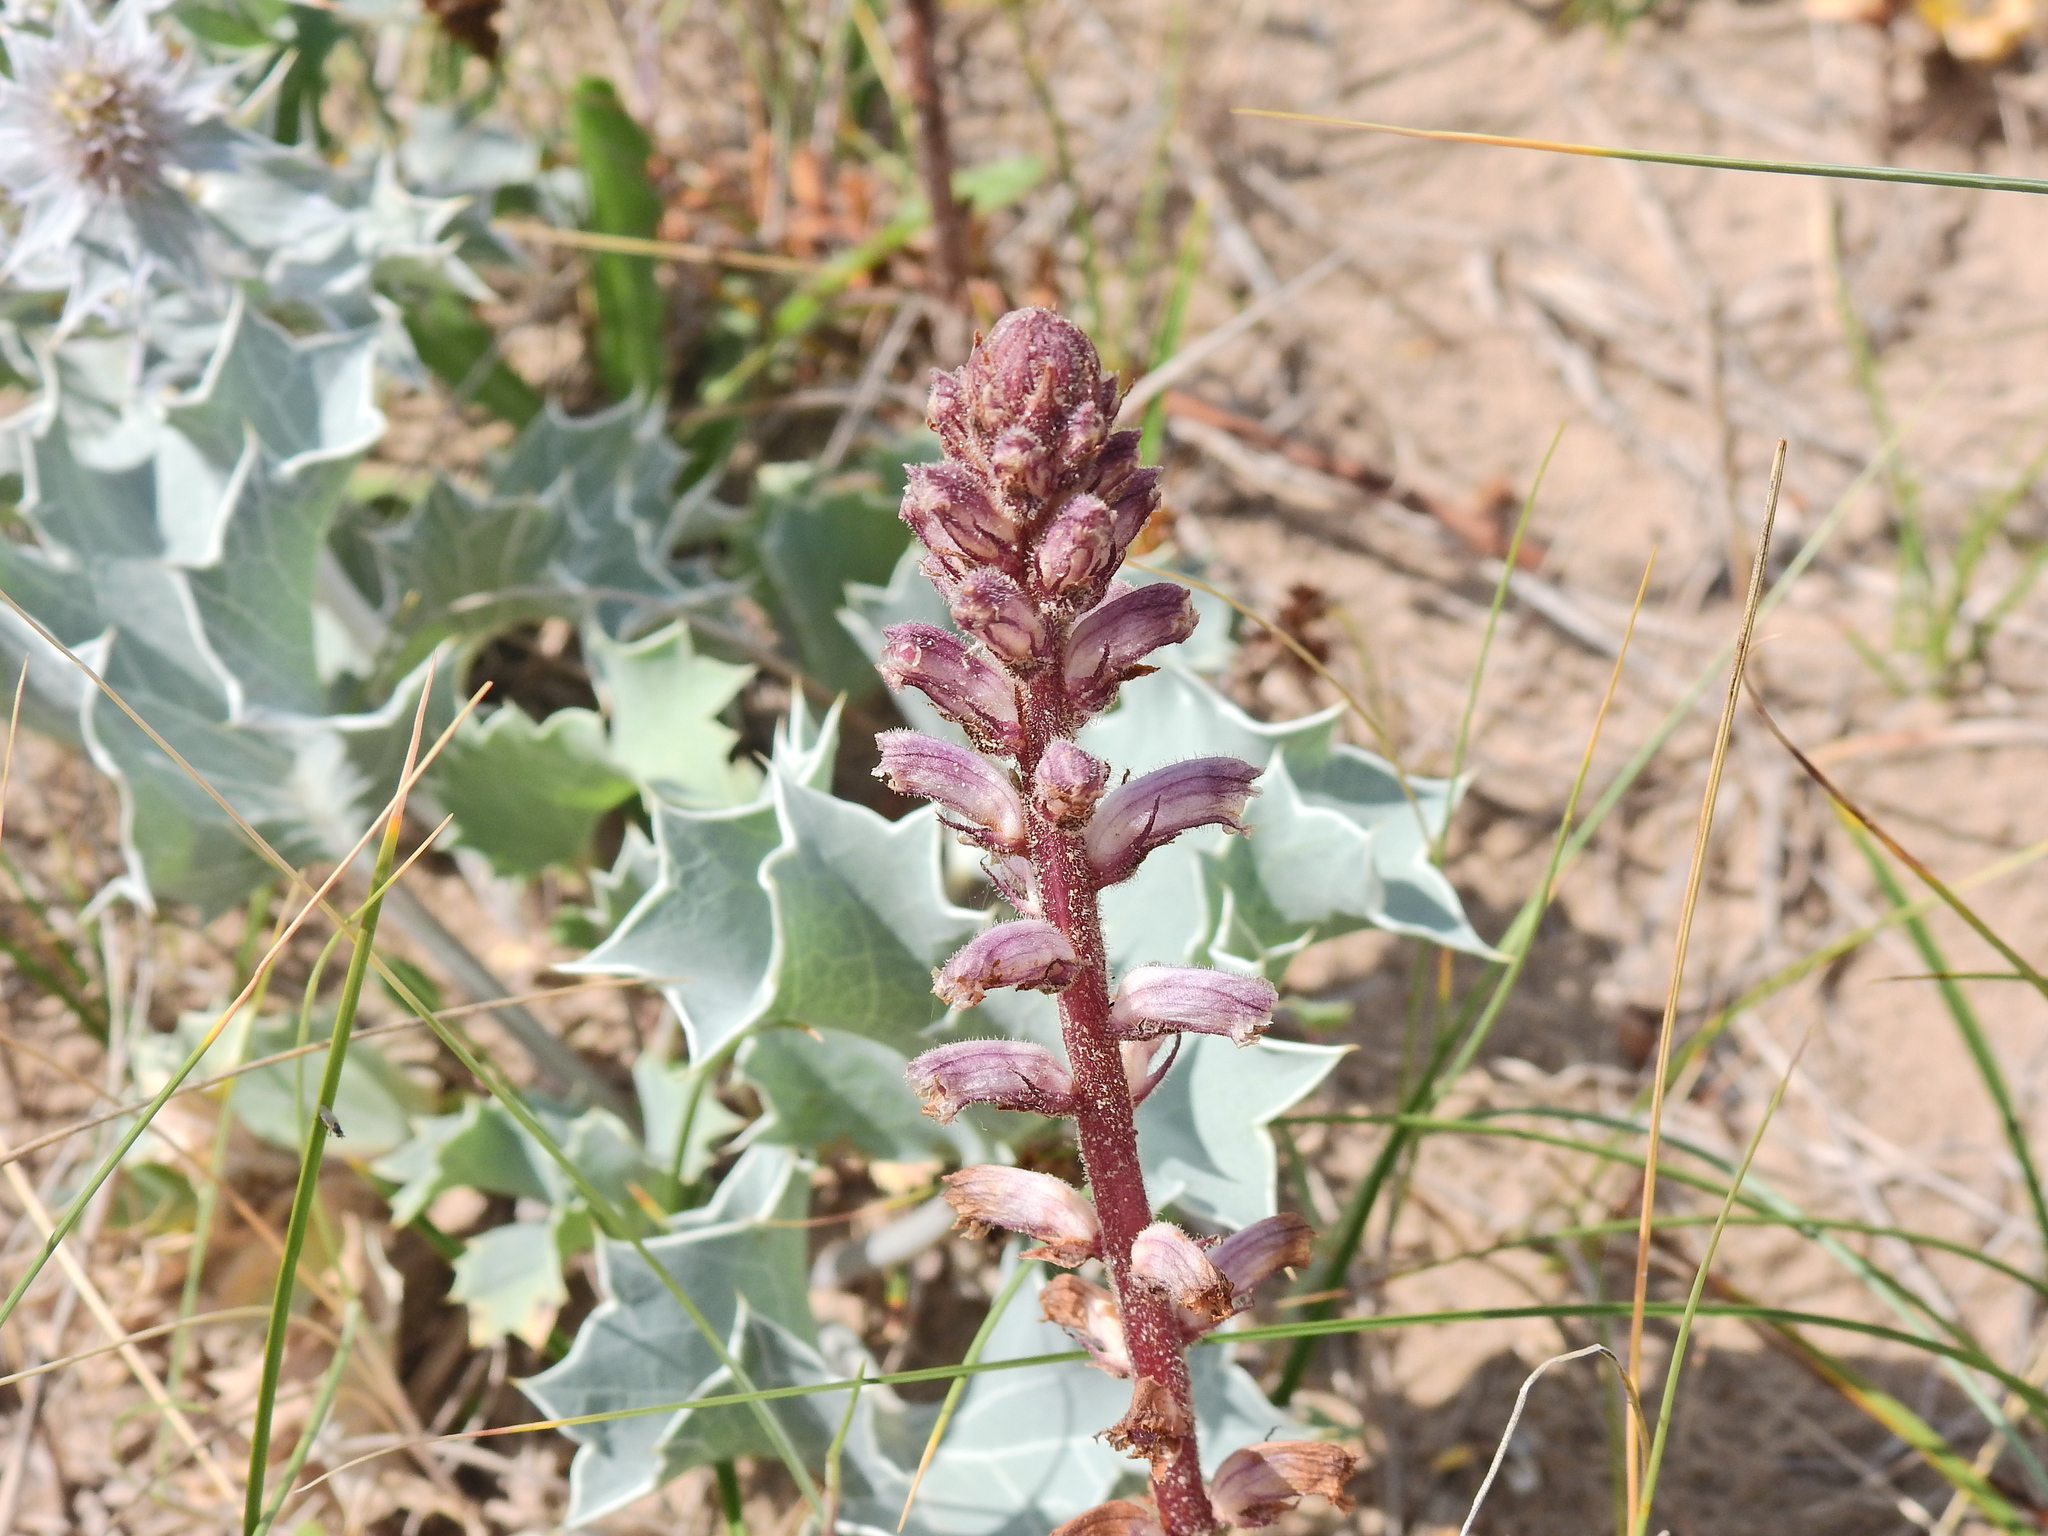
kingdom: Plantae
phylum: Tracheophyta
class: Magnoliopsida
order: Lamiales
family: Orobanchaceae
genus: Orobanche
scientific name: Orobanche minor
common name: Common broomrape
